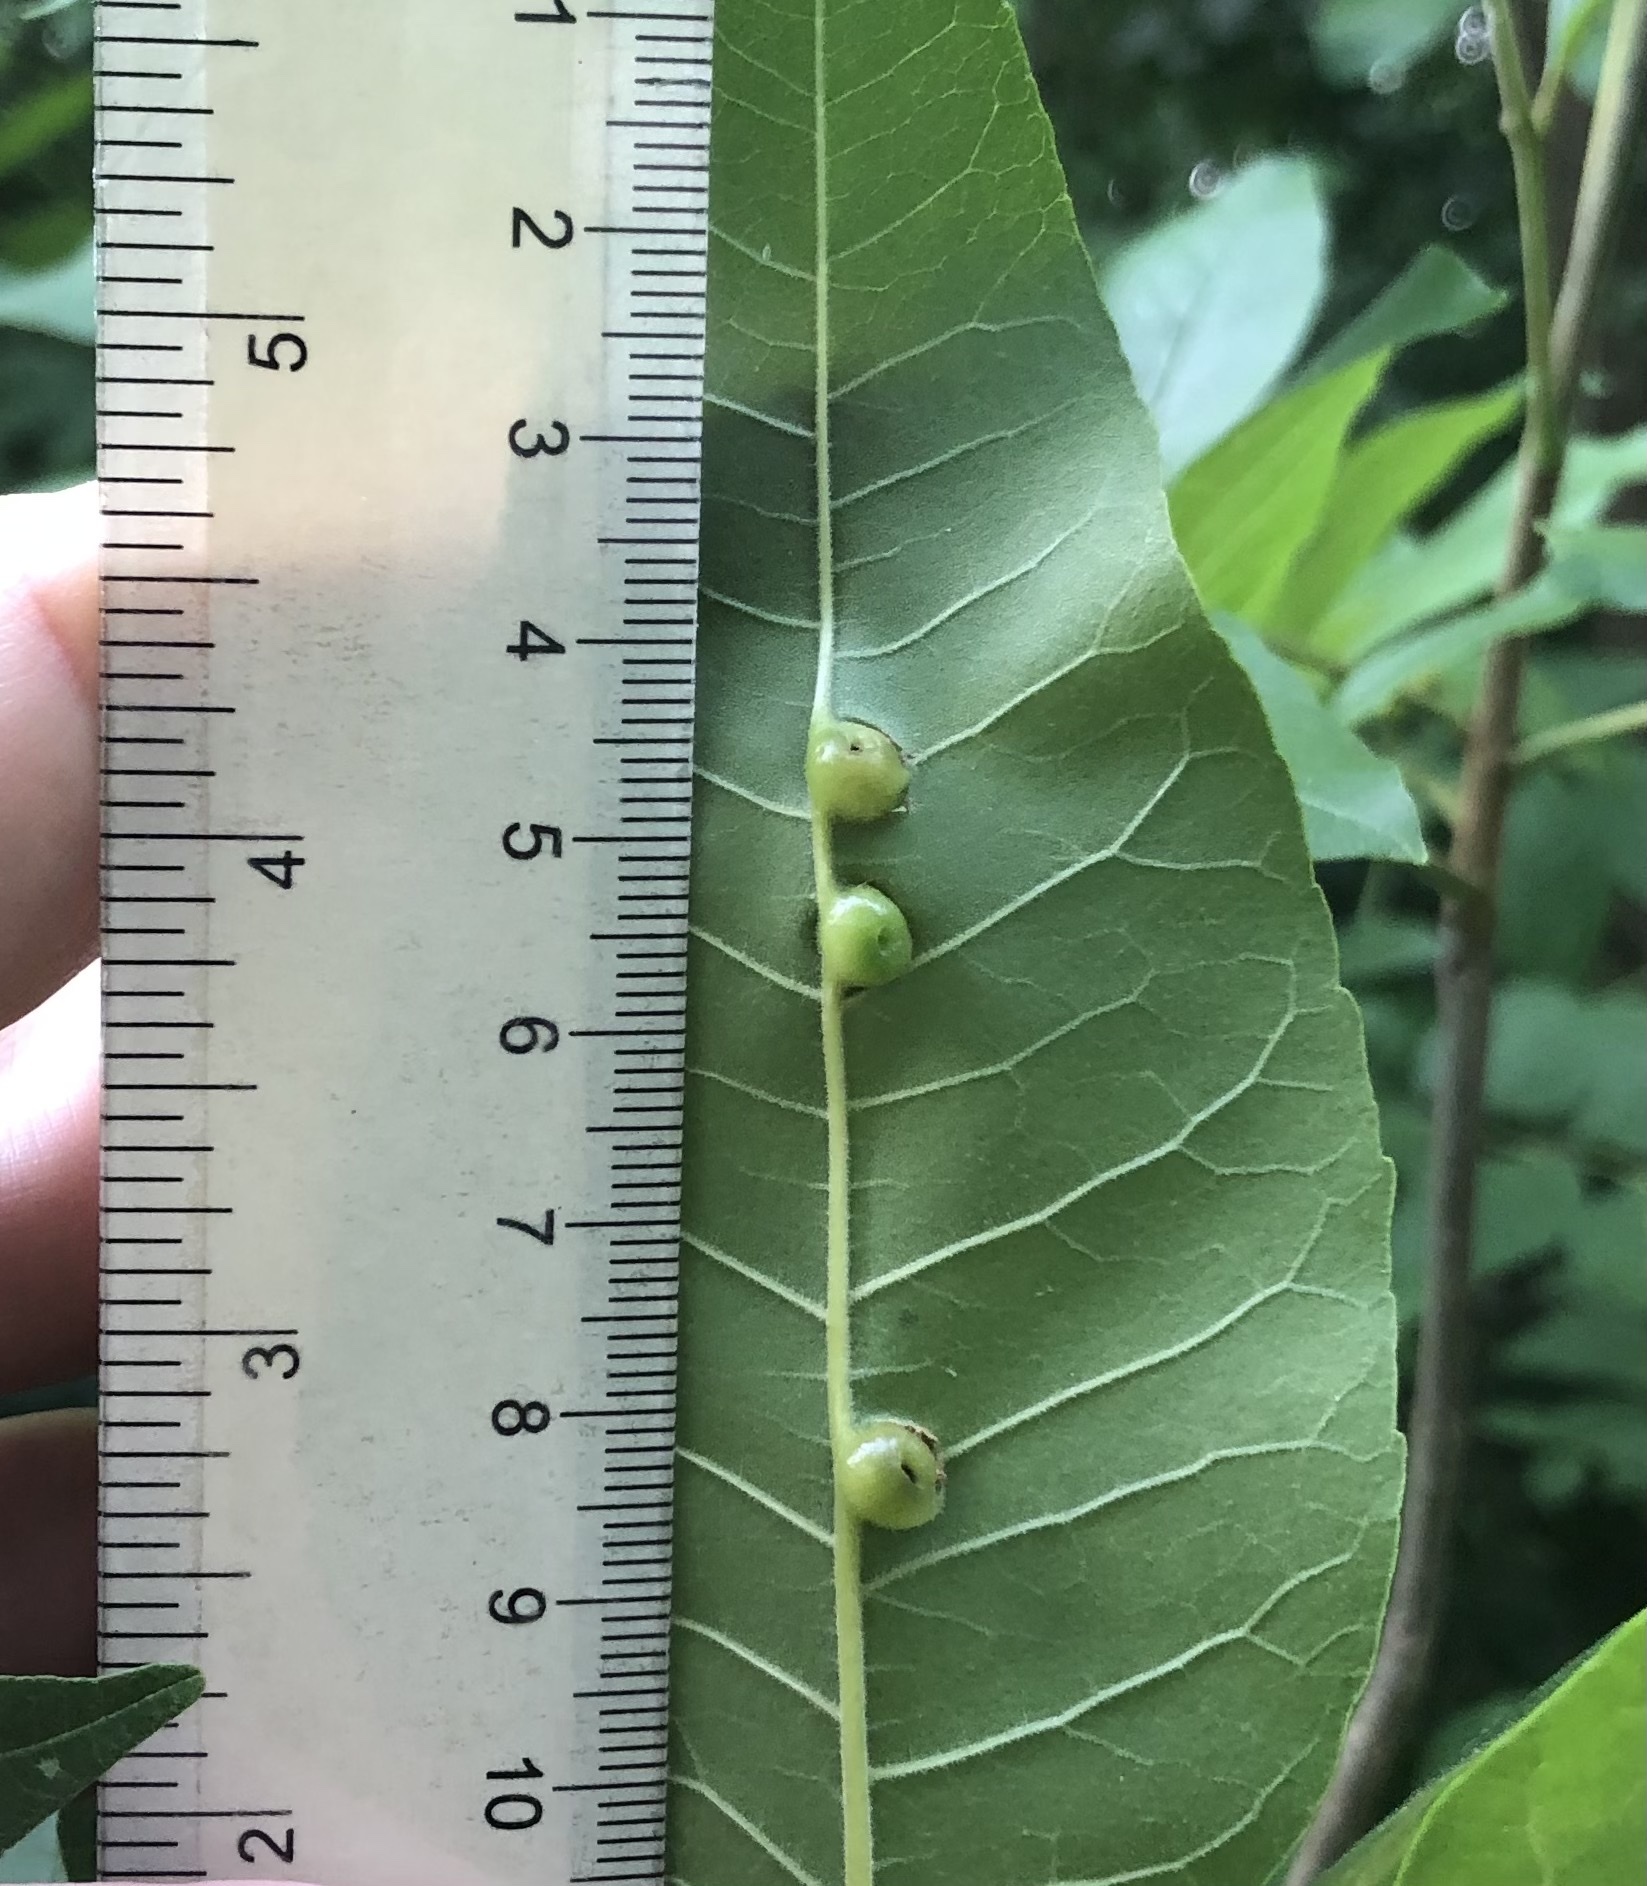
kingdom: Animalia
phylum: Arthropoda
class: Insecta
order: Diptera
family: Cecidomyiidae
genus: Dasineura
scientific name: Dasineura pellex
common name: Ash bullet gall midge
